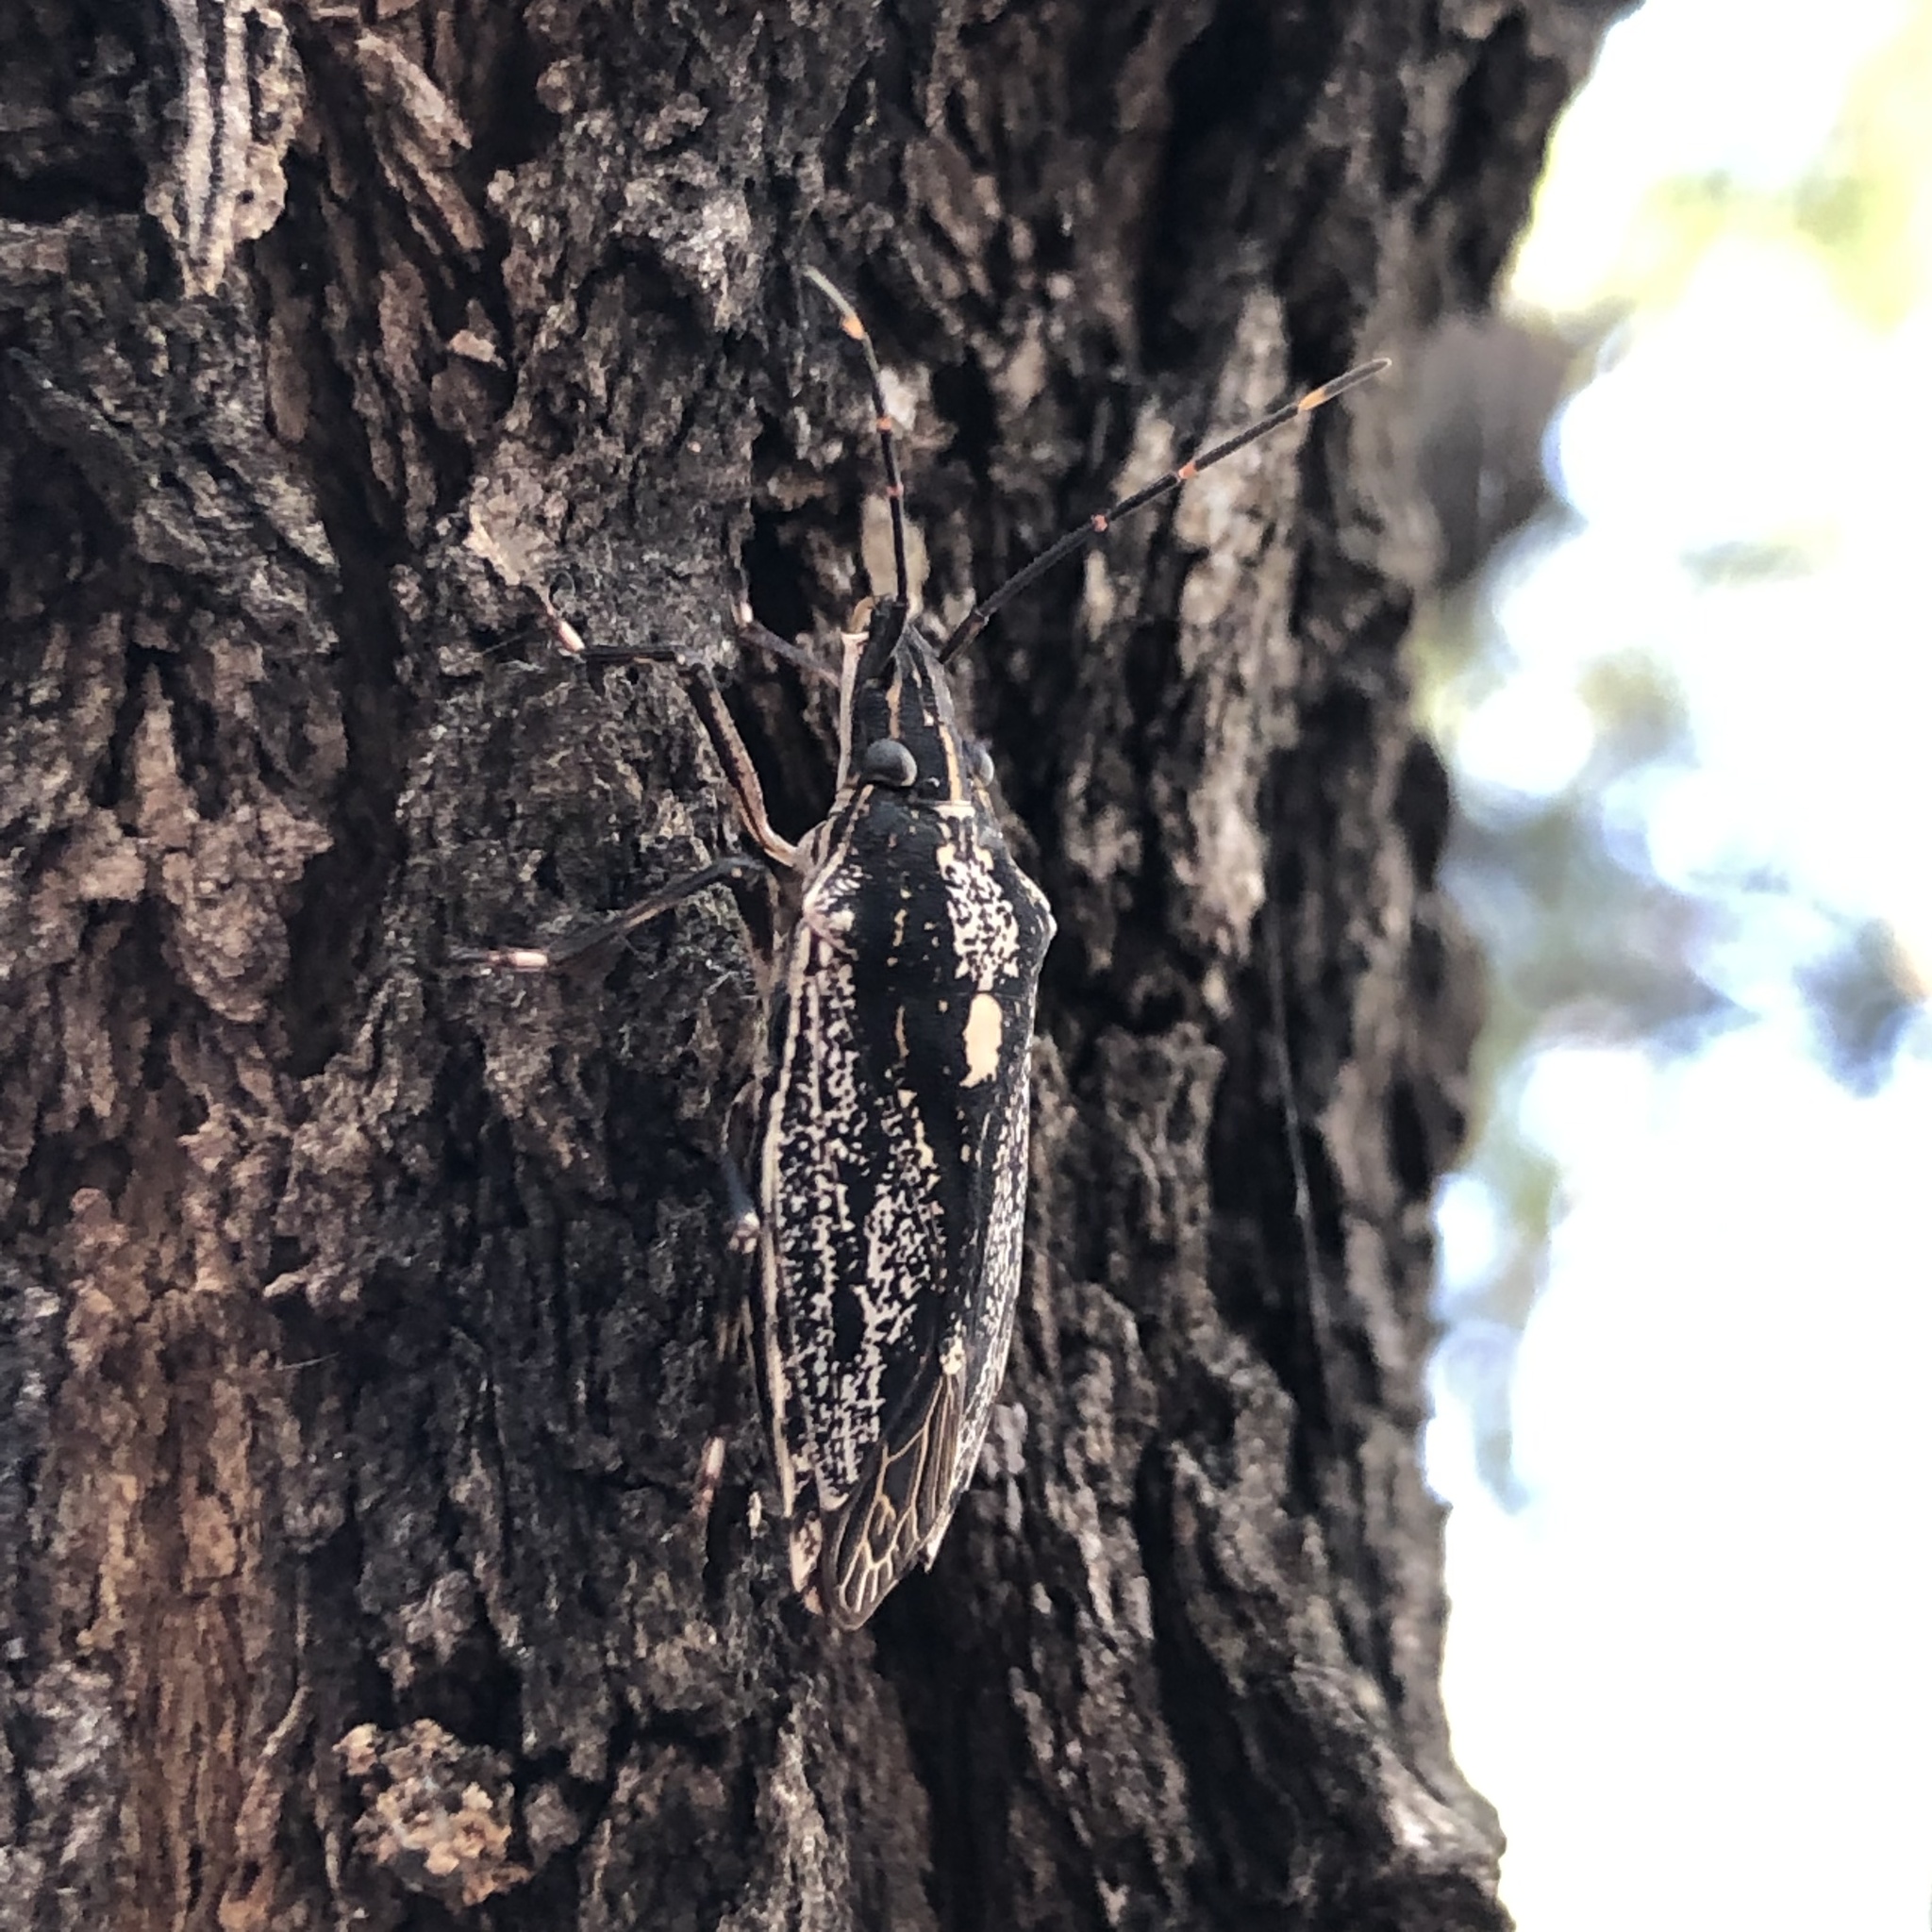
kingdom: Animalia
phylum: Arthropoda
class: Insecta
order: Hemiptera
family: Pentatomidae
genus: Aglaophon
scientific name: Aglaophon
